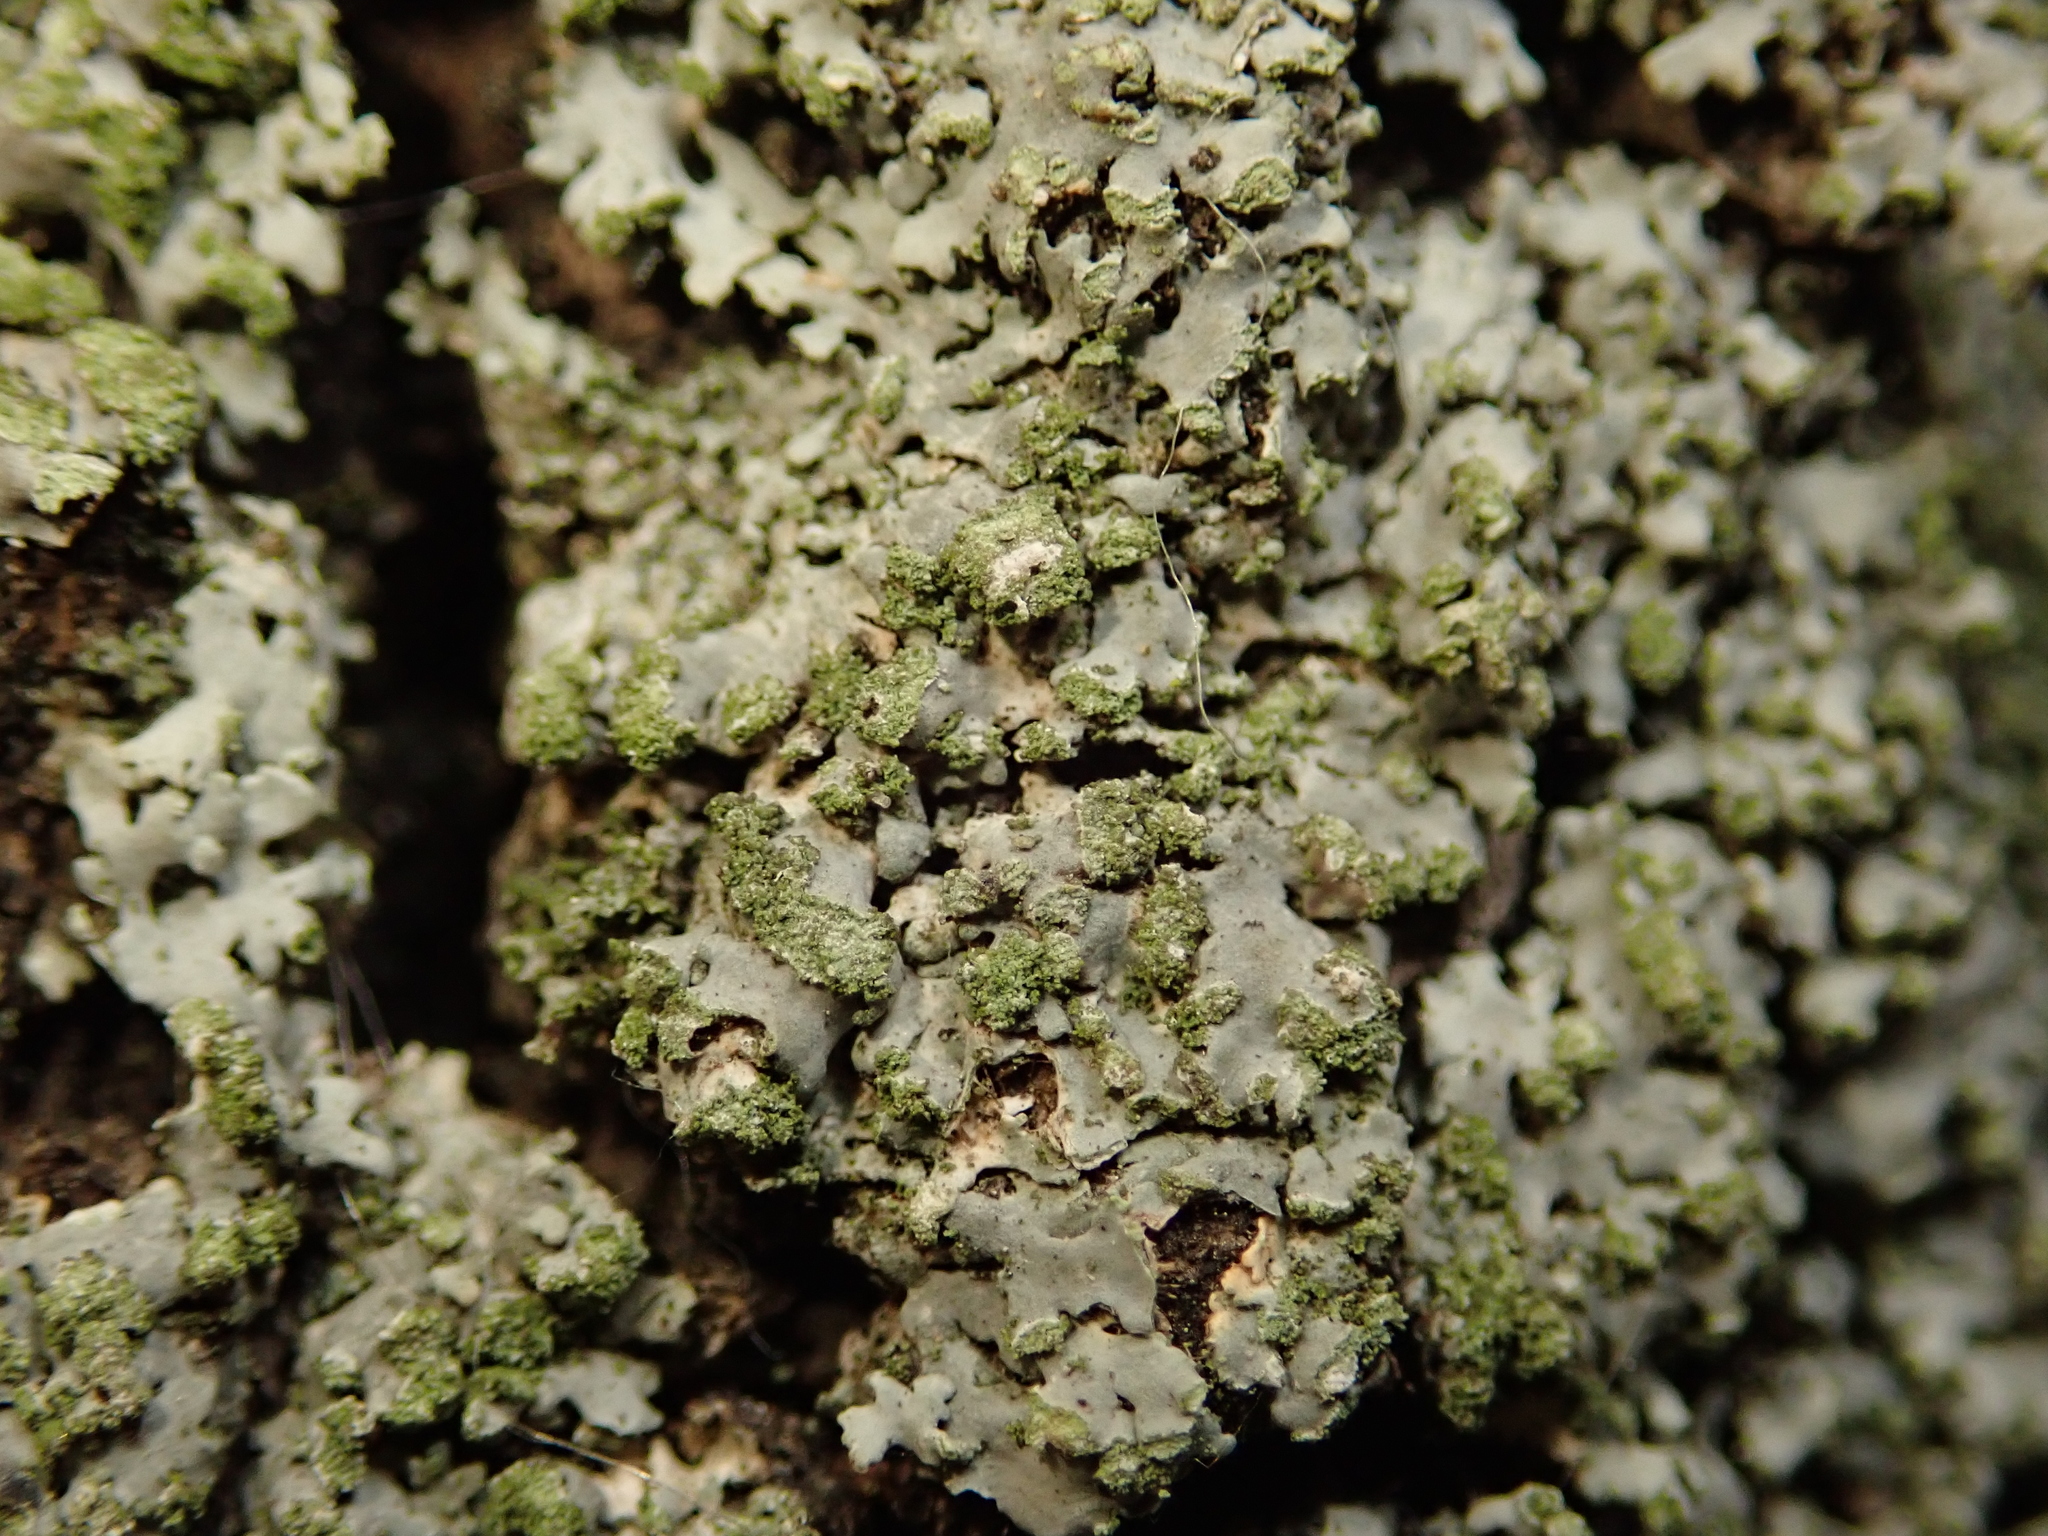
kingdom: Fungi
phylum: Ascomycota
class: Lecanoromycetes
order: Caliciales
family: Physciaceae
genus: Phaeophyscia
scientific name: Phaeophyscia orbicularis
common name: Mealy shadow lichen
